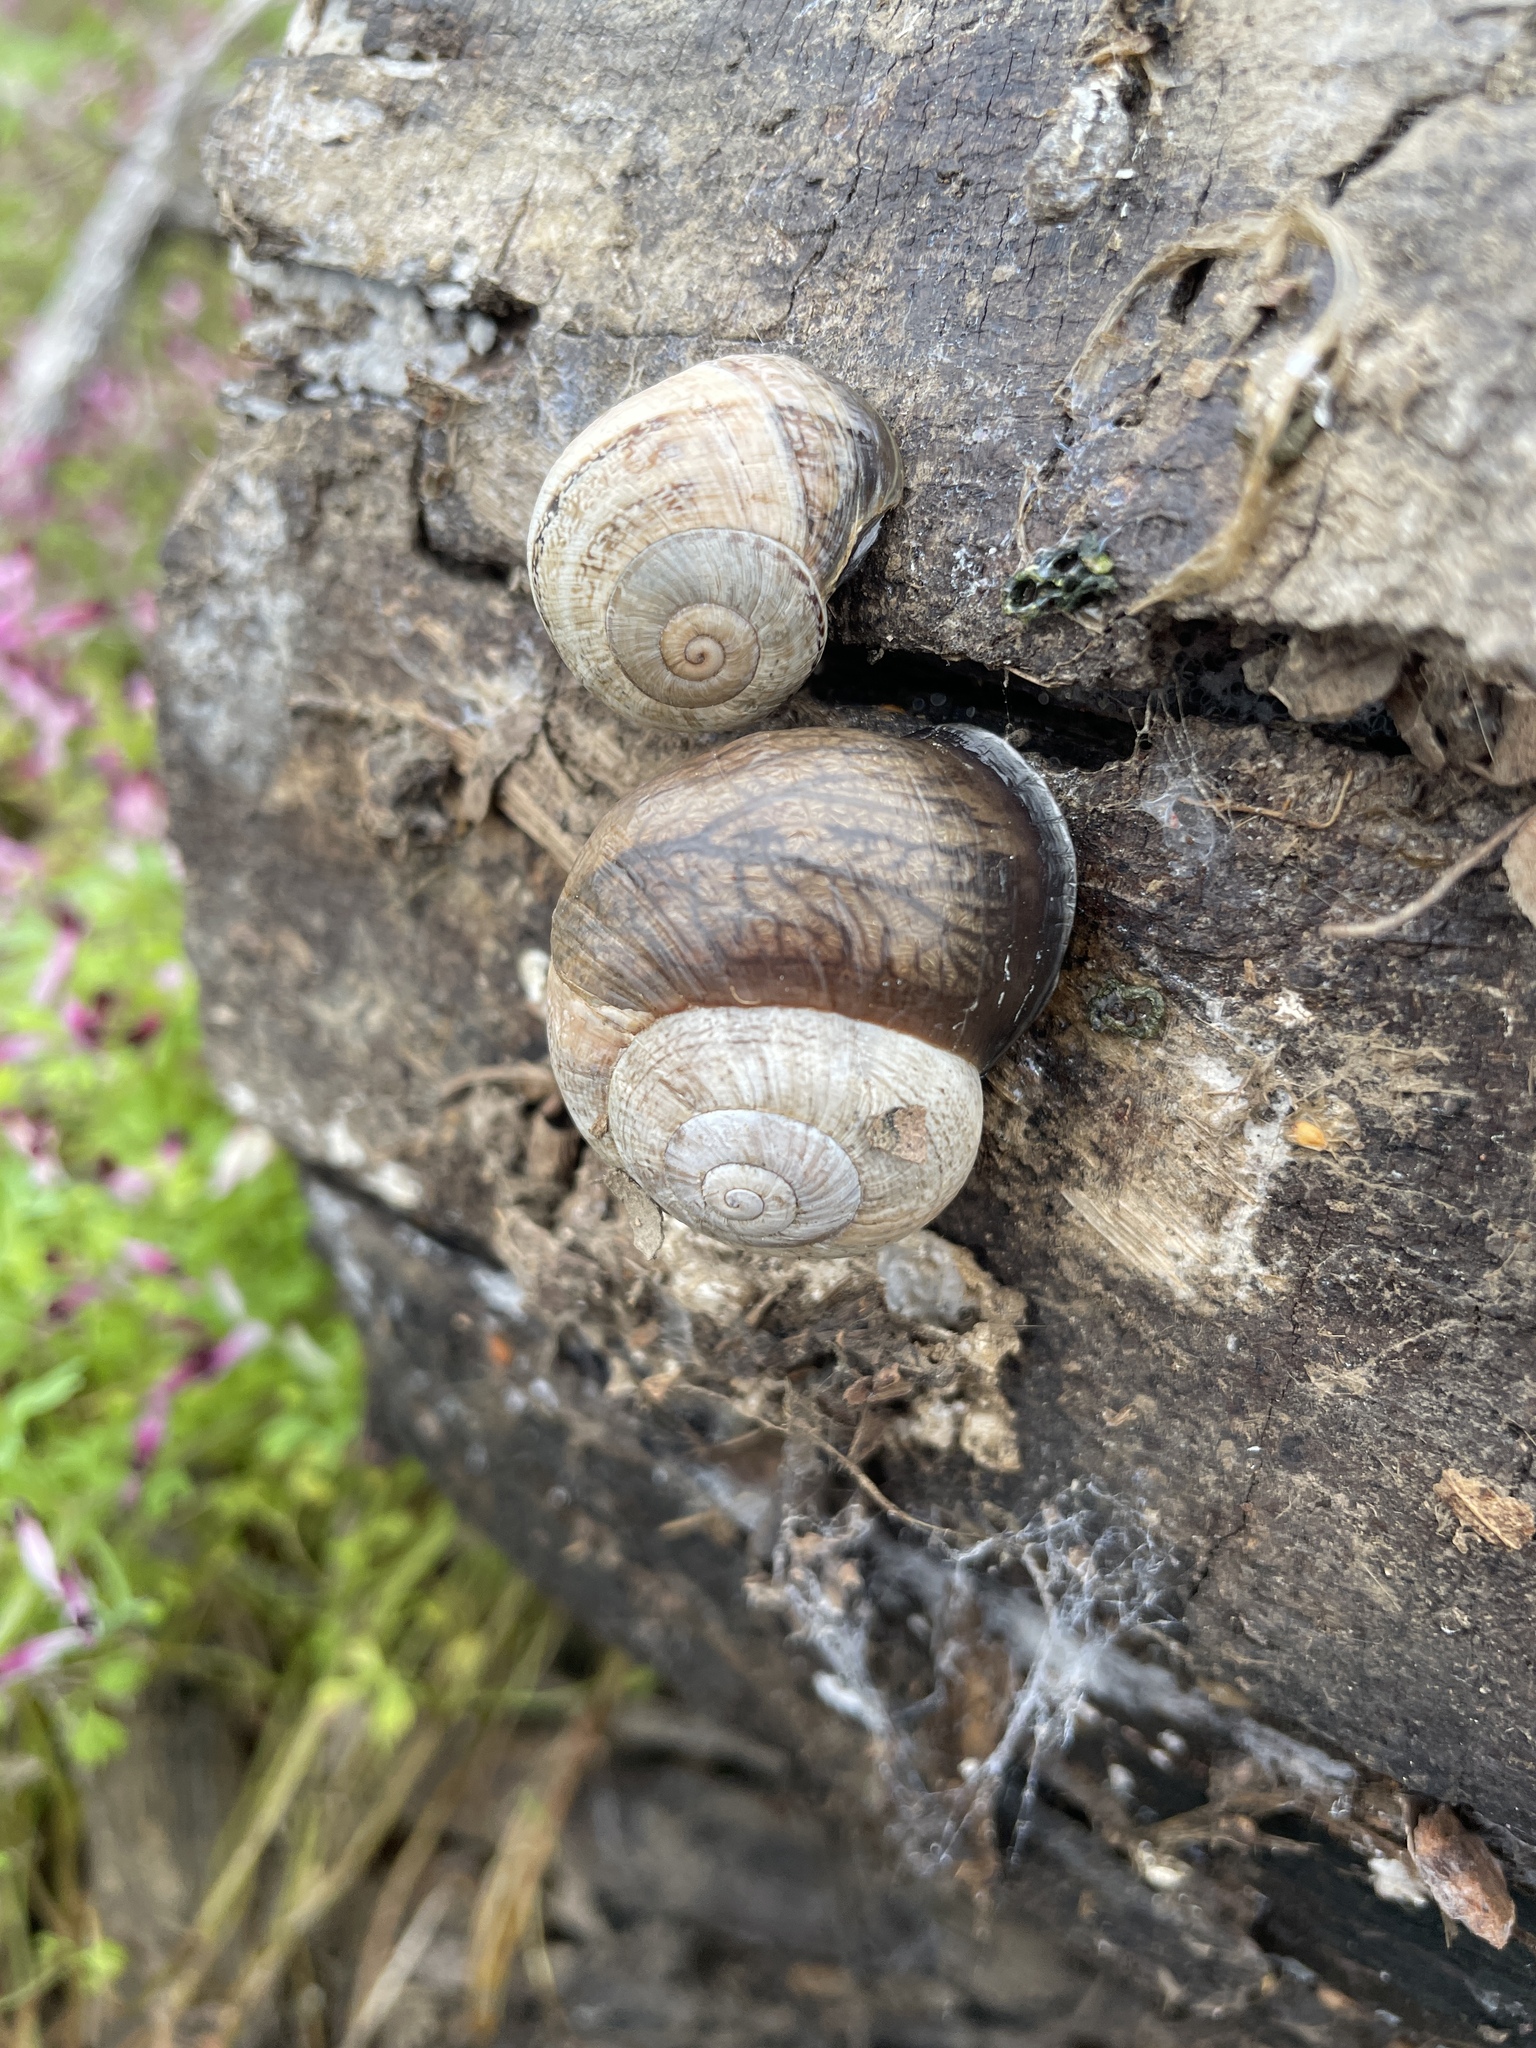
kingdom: Animalia
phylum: Mollusca
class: Gastropoda
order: Stylommatophora
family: Helicidae
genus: Otala
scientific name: Otala lactea
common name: Milk snail
